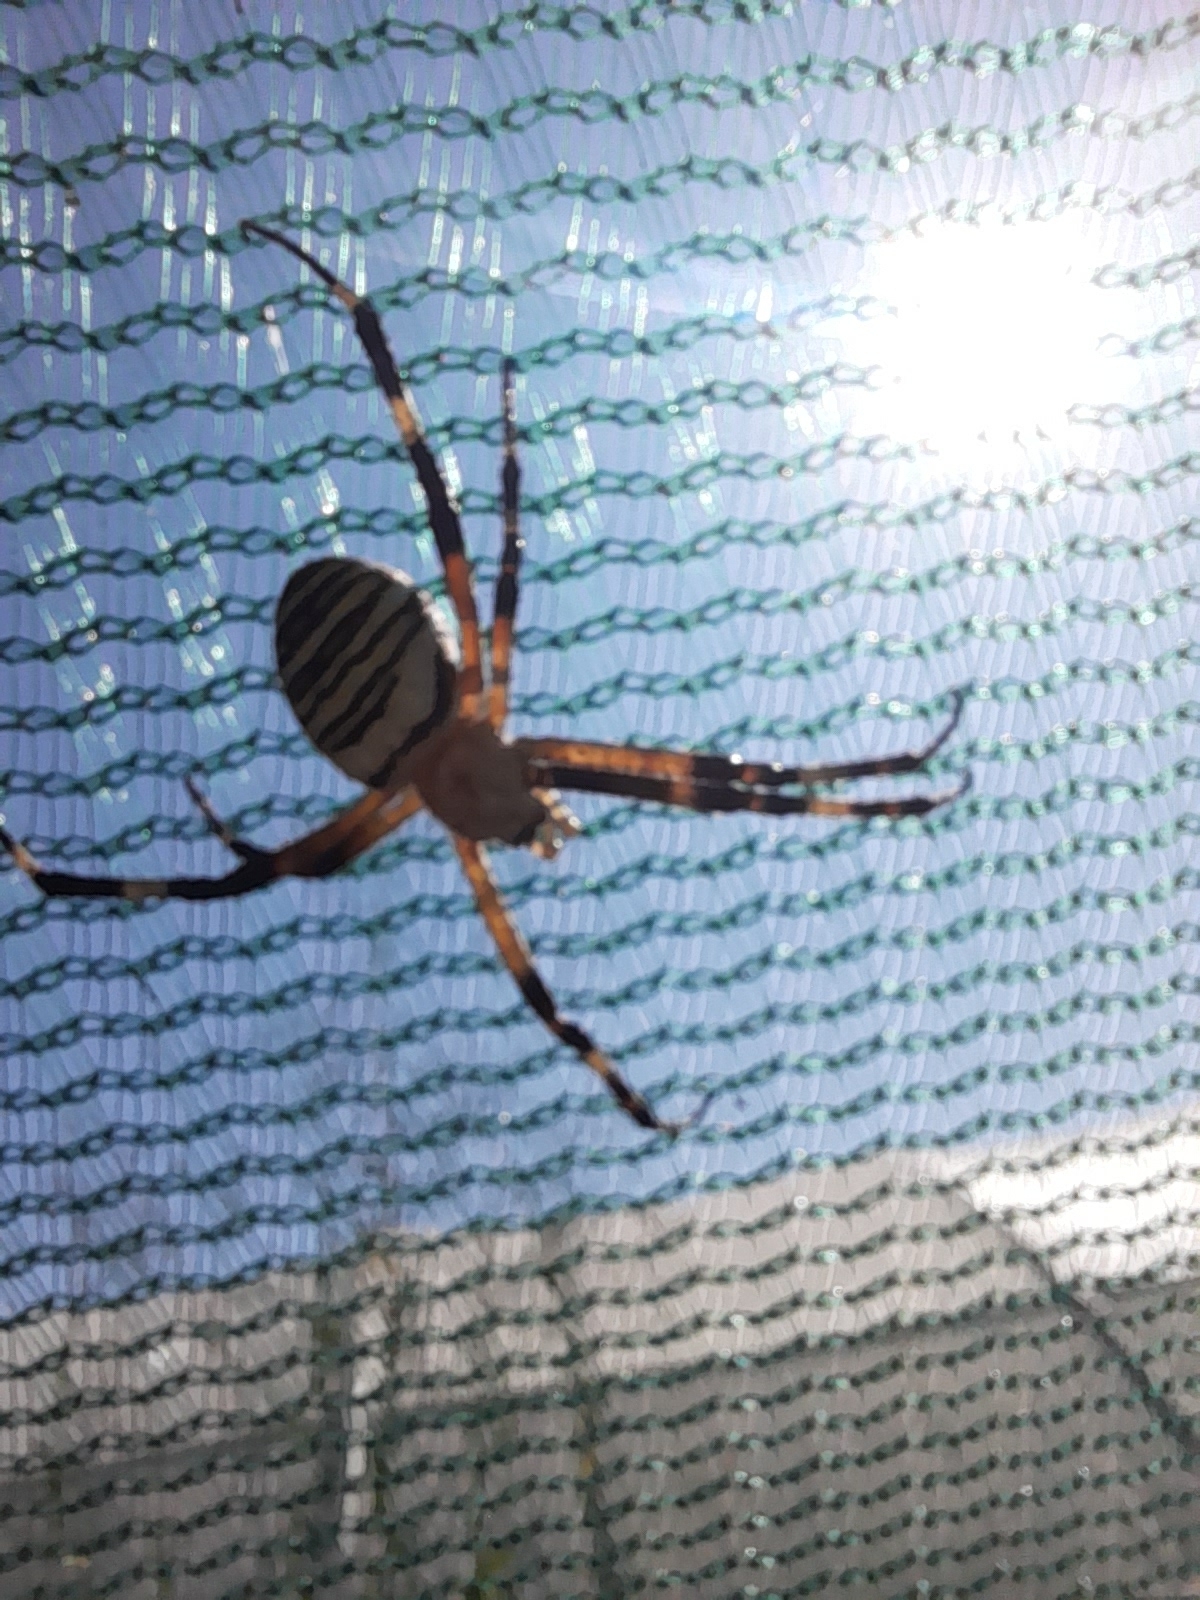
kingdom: Animalia
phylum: Arthropoda
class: Arachnida
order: Araneae
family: Araneidae
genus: Argiope
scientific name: Argiope bruennichi
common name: Wasp spider
